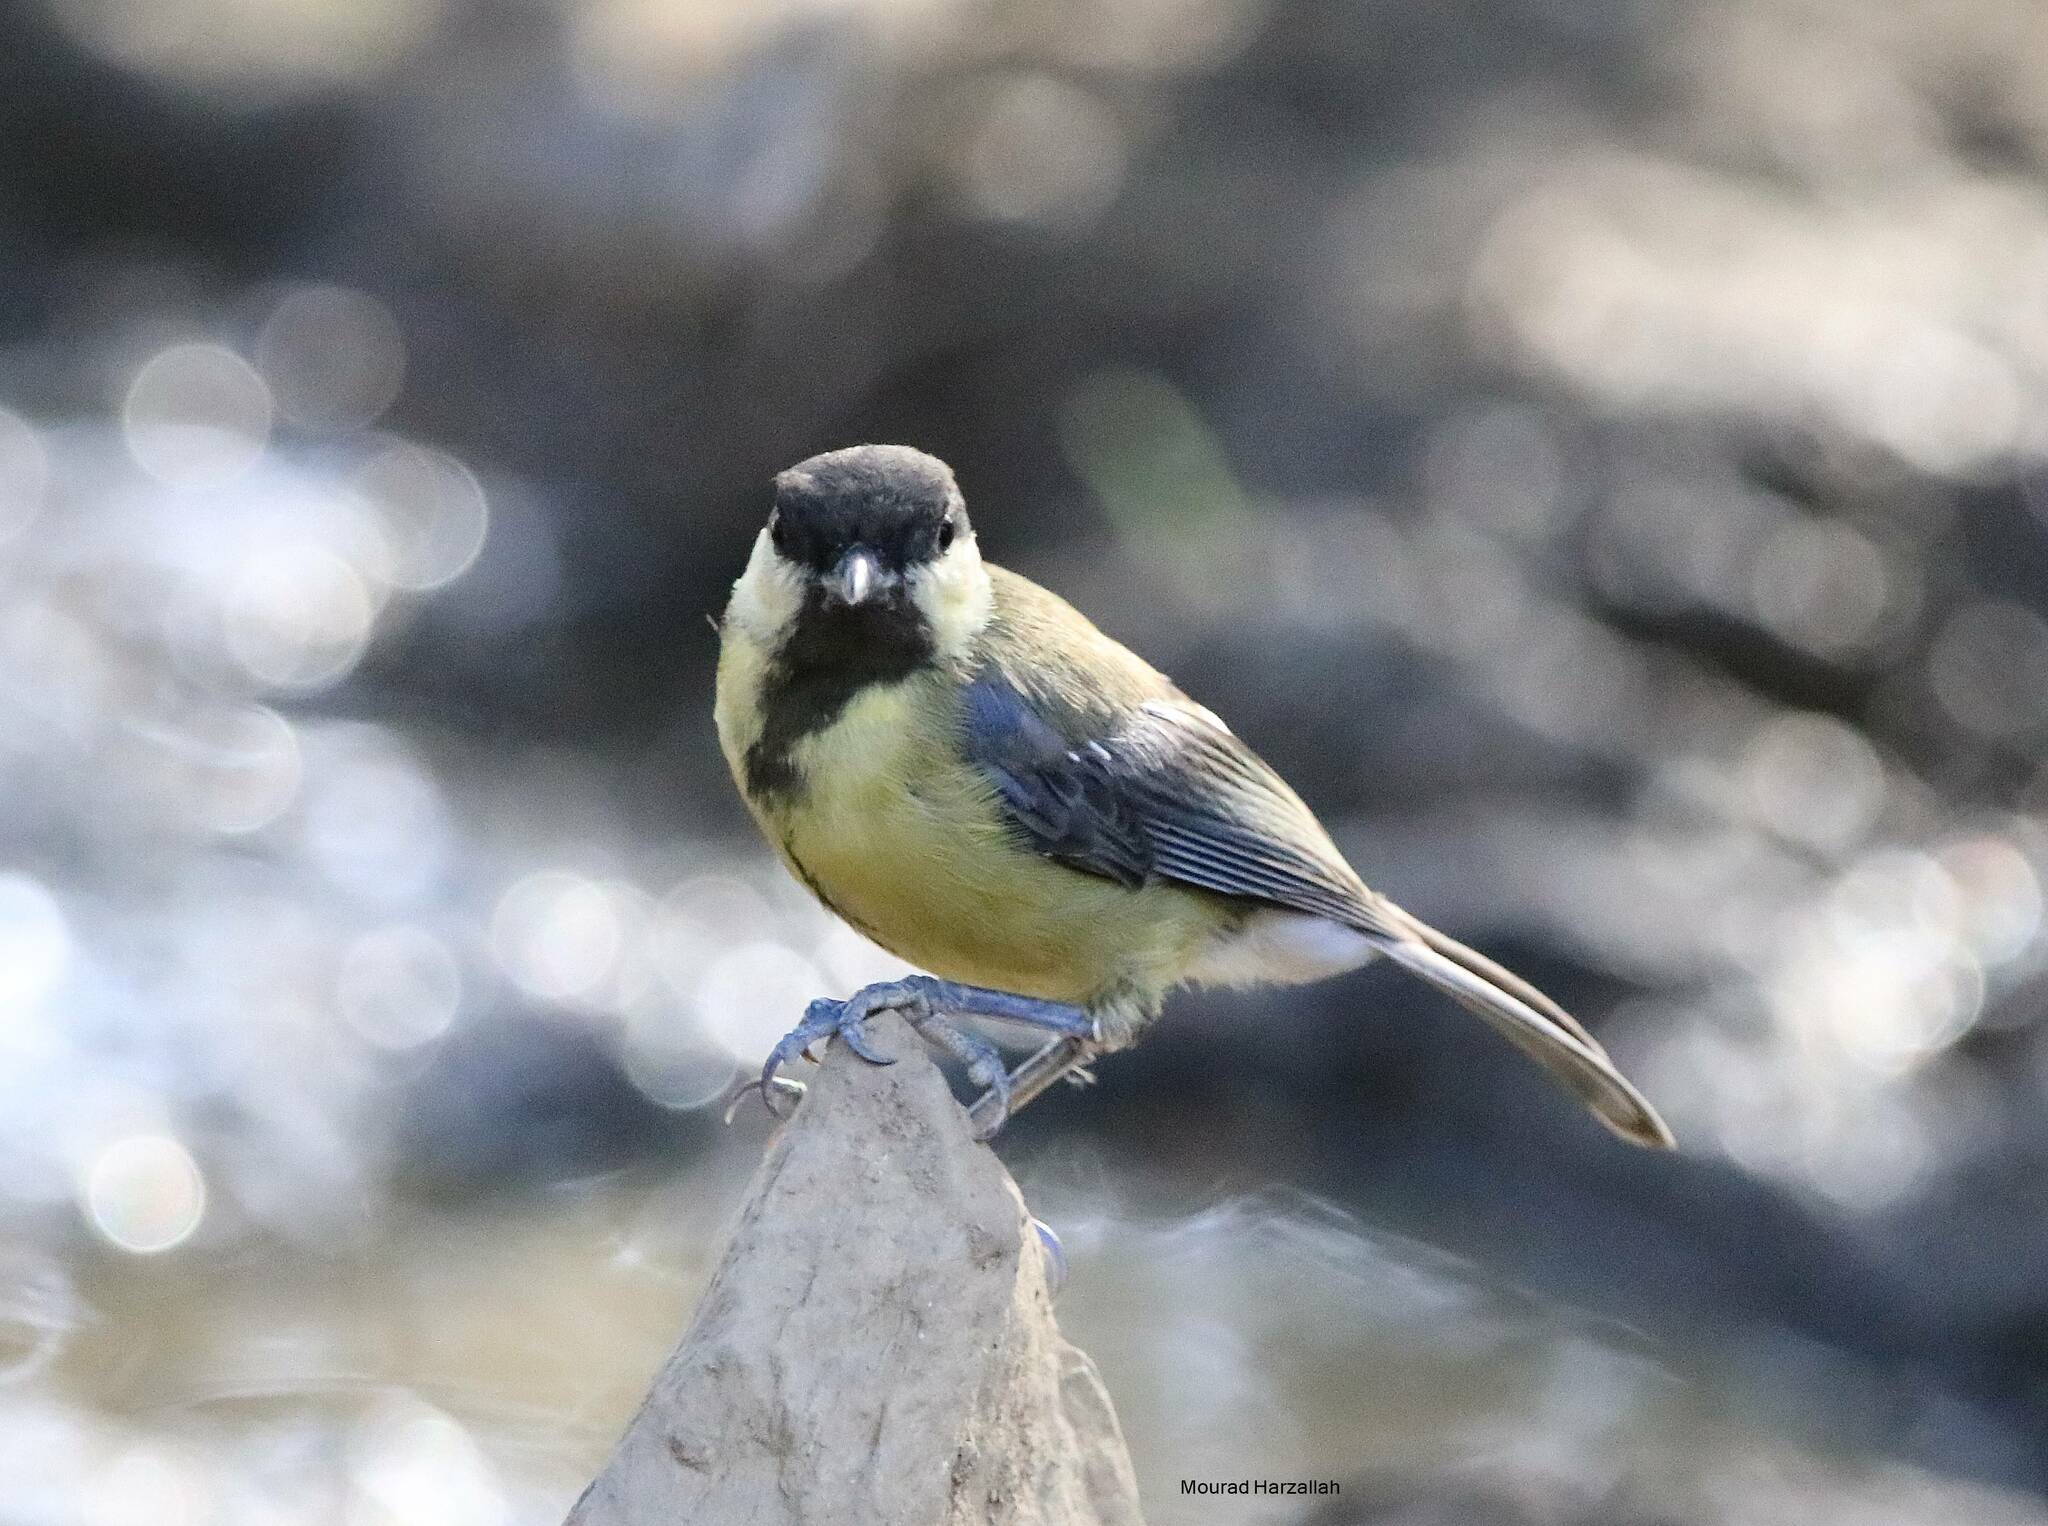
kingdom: Animalia
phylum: Chordata
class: Aves
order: Passeriformes
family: Paridae
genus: Parus
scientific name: Parus major
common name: Great tit
